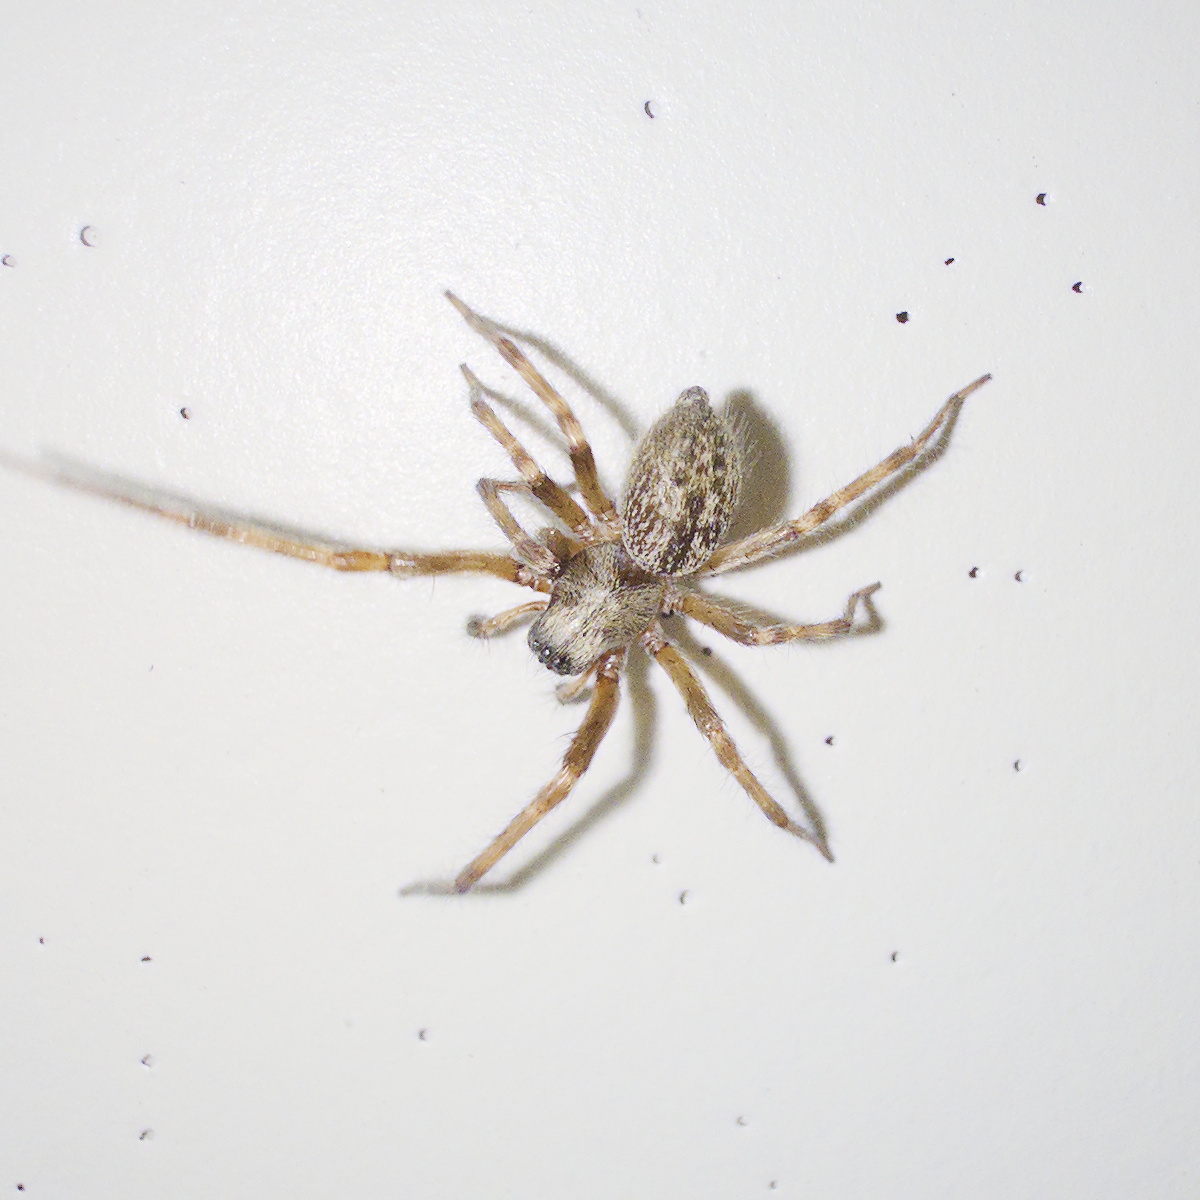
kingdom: Animalia
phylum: Arthropoda
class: Arachnida
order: Araneae
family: Desidae
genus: Badumna
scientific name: Badumna longinqua
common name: Gray house spider
